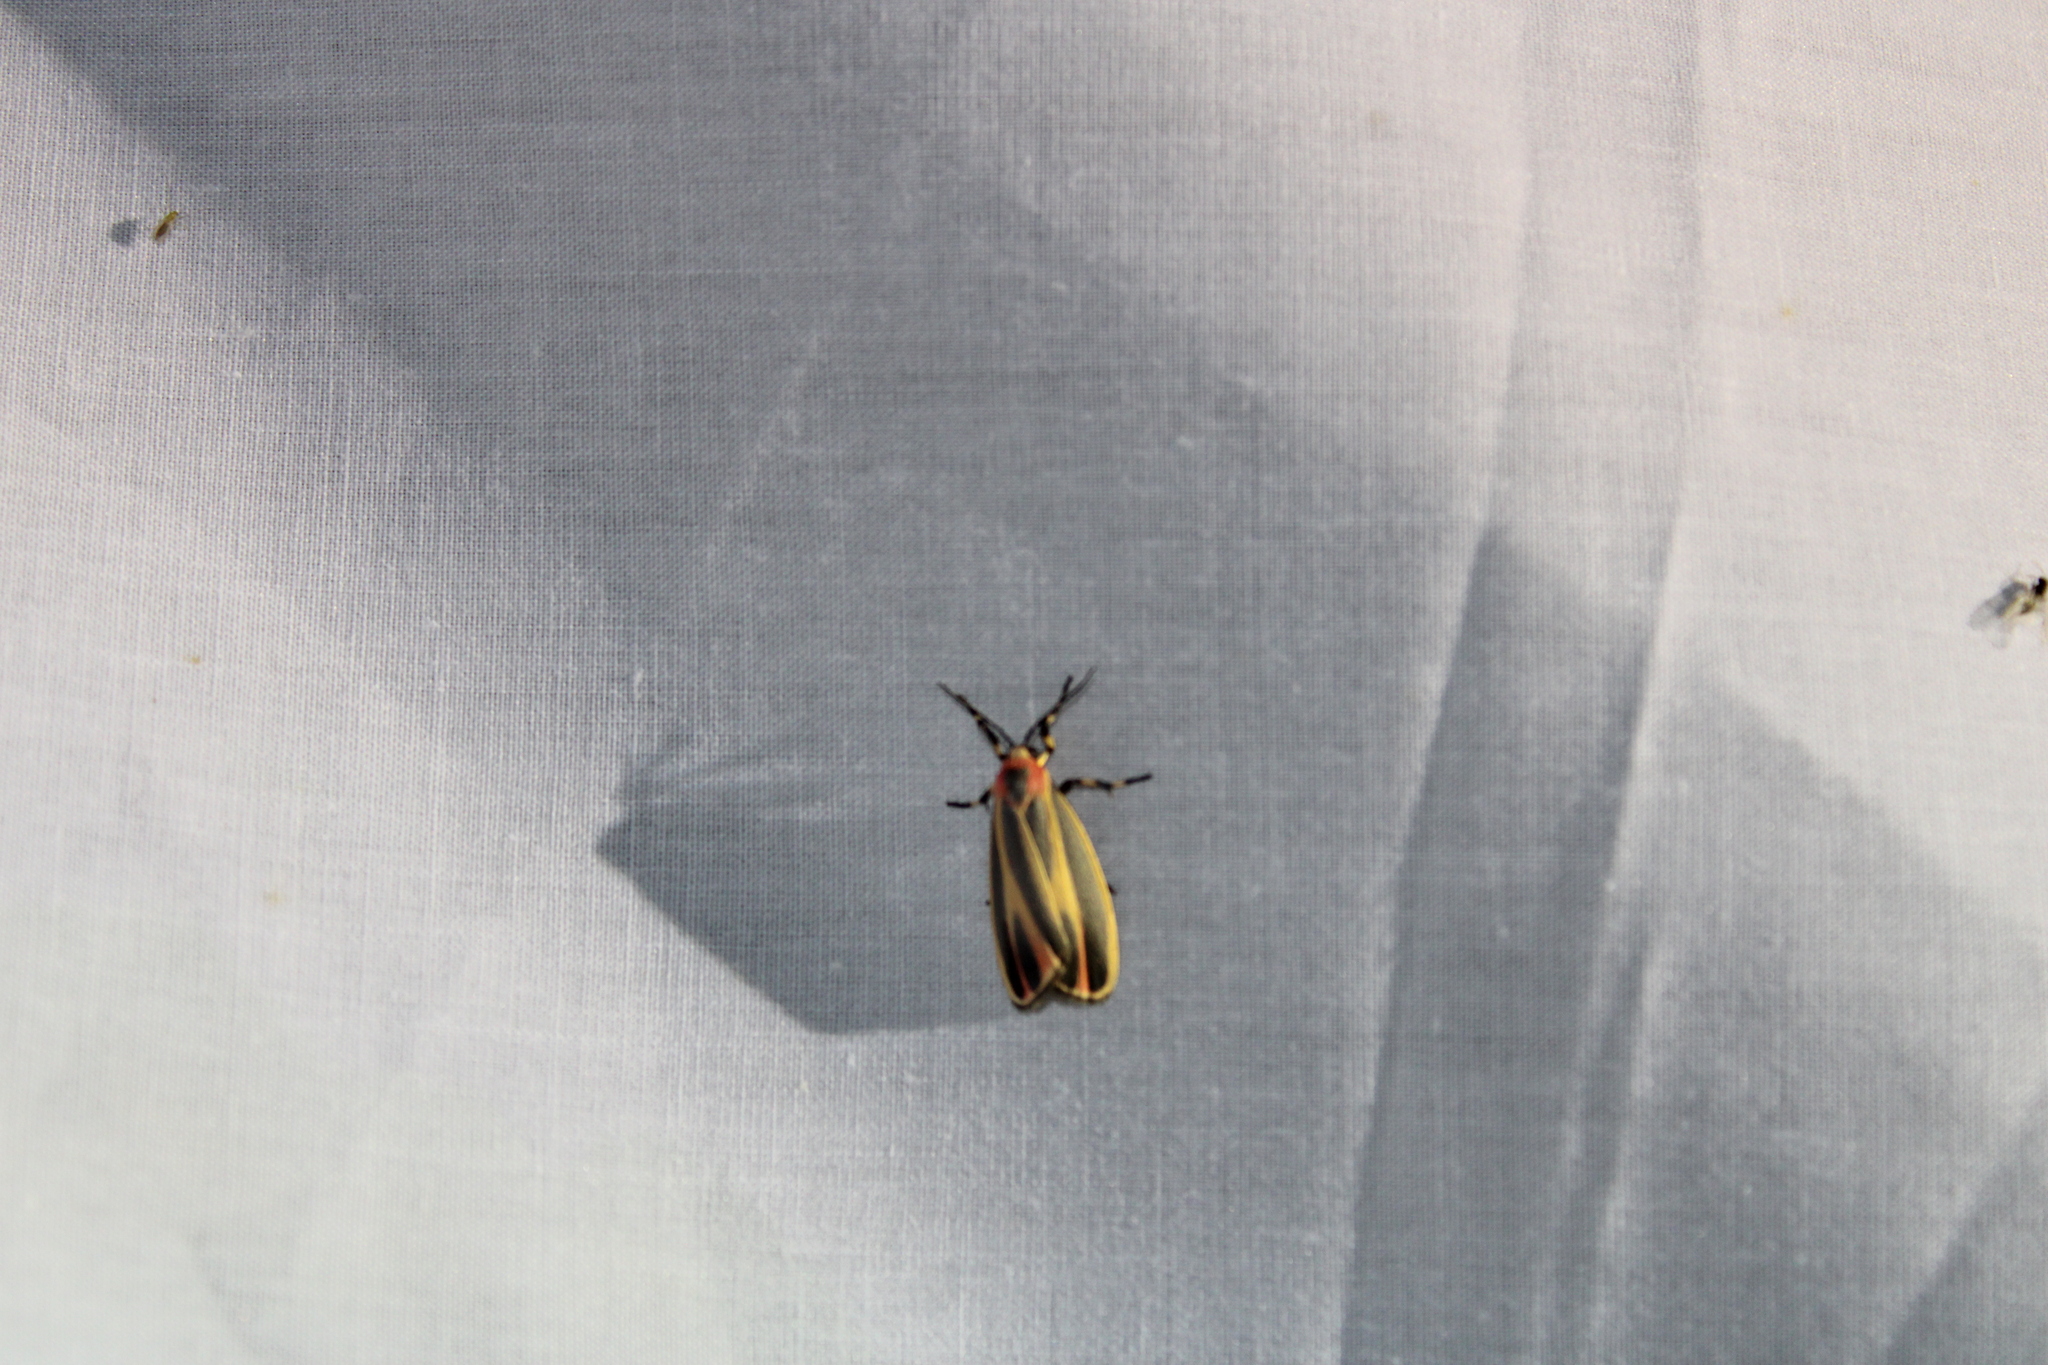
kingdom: Animalia
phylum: Arthropoda
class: Insecta
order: Lepidoptera
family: Erebidae
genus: Hypoprepia
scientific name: Hypoprepia fucosa
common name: Painted lichen moth
